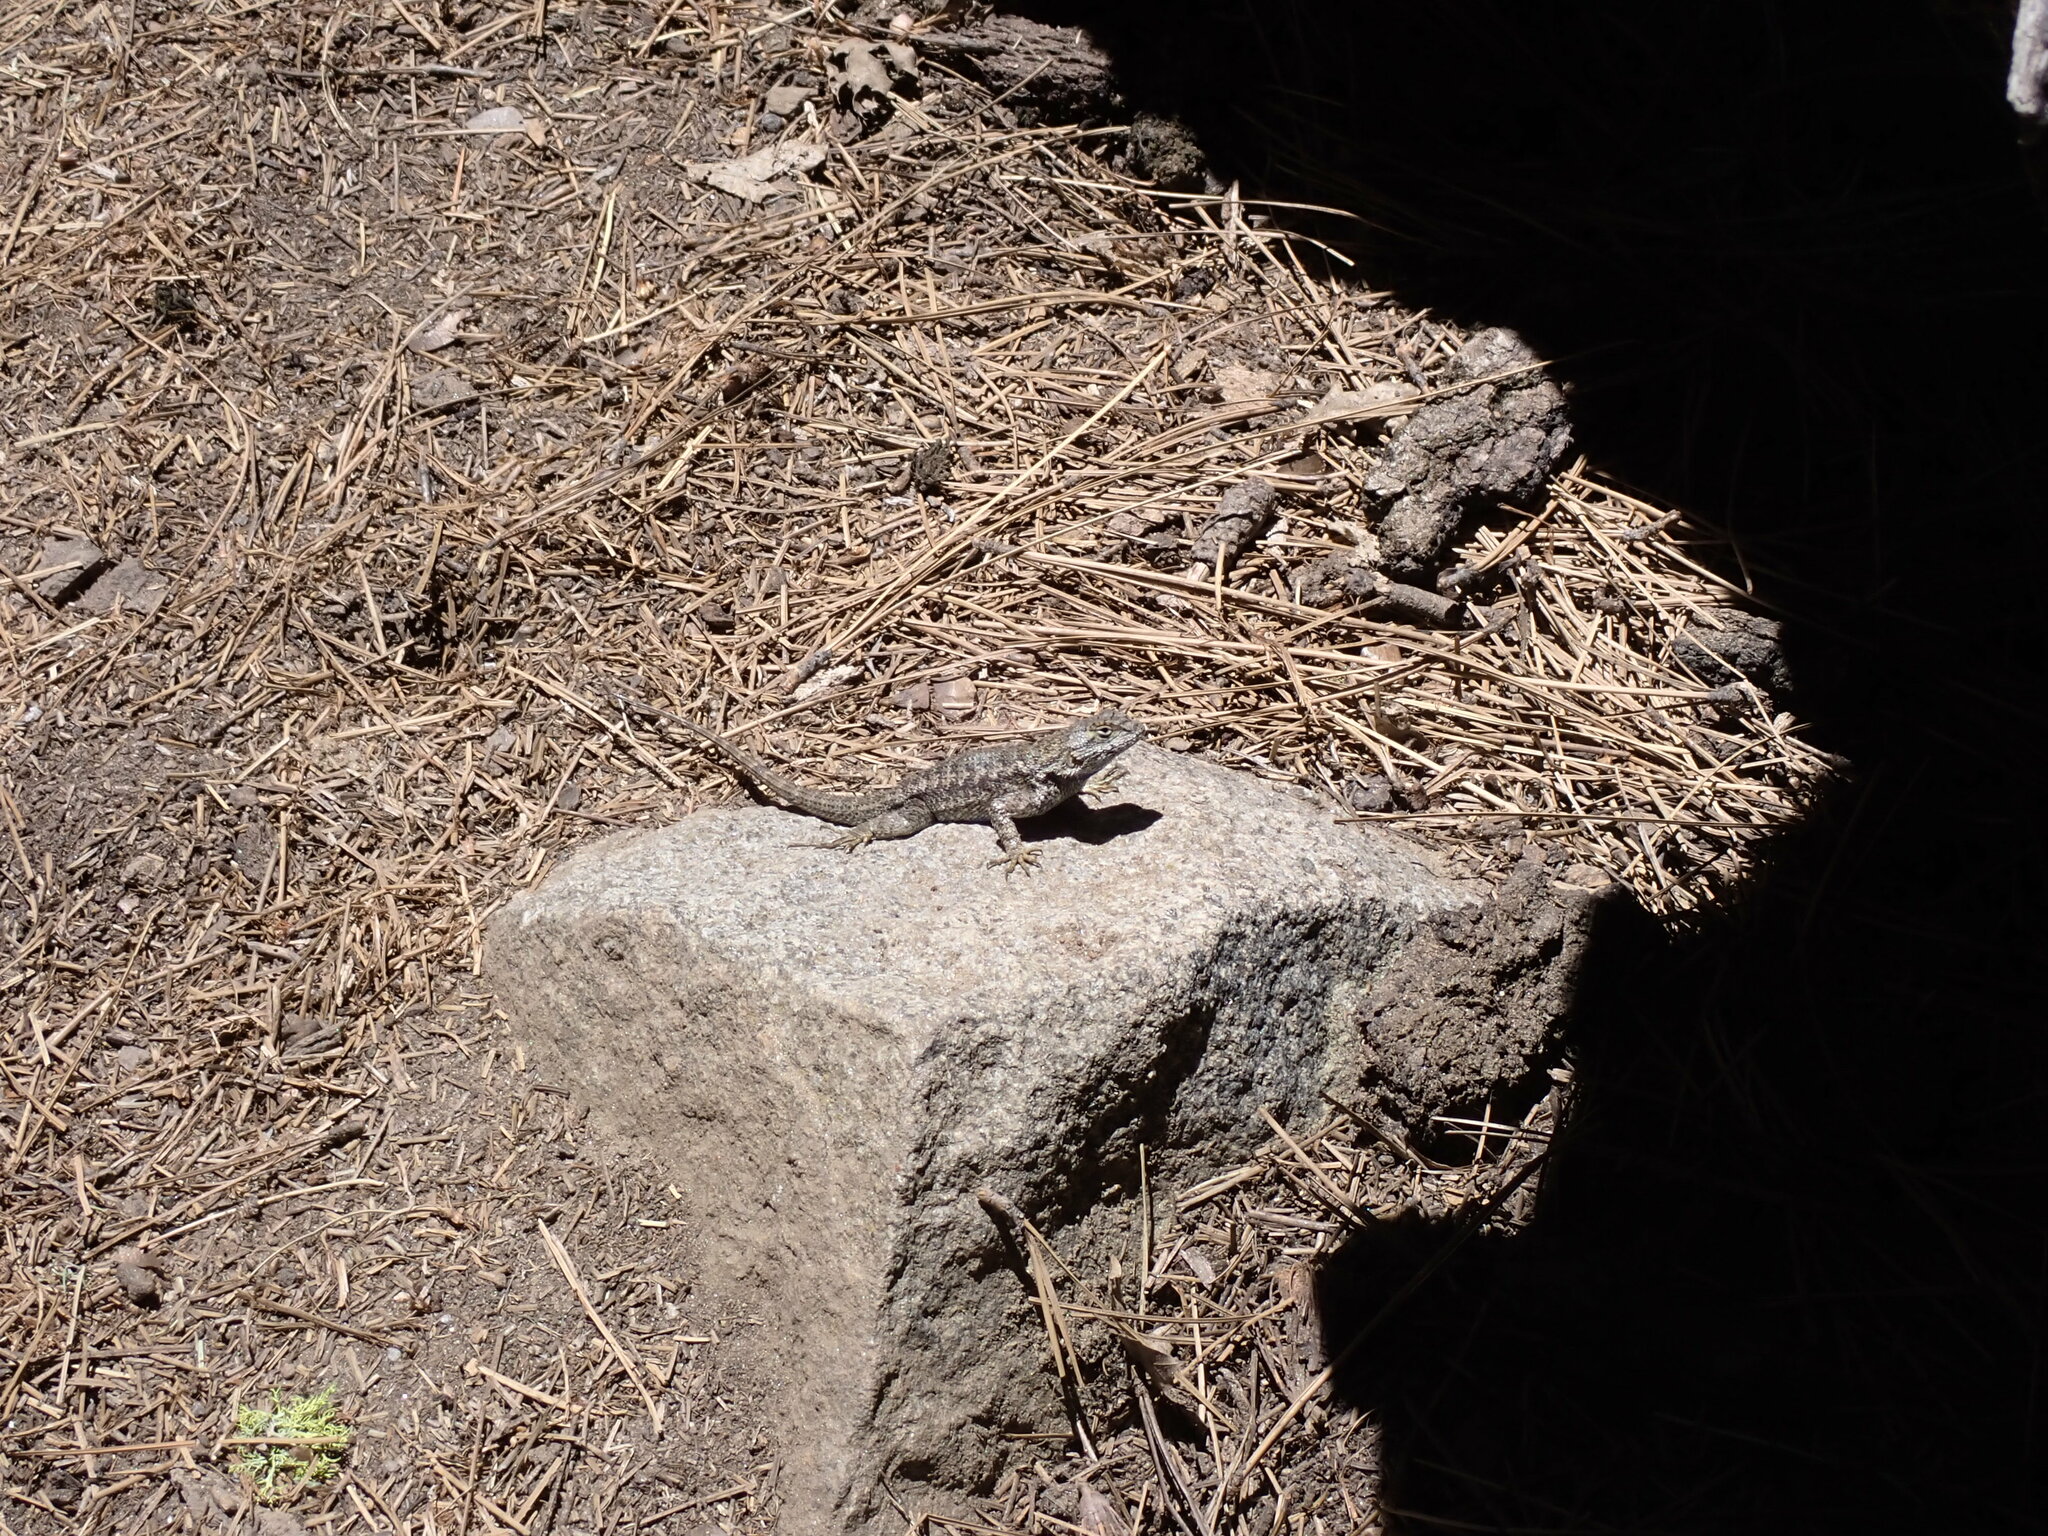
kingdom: Animalia
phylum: Chordata
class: Squamata
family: Phrynosomatidae
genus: Sceloporus
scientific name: Sceloporus occidentalis
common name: Western fence lizard
